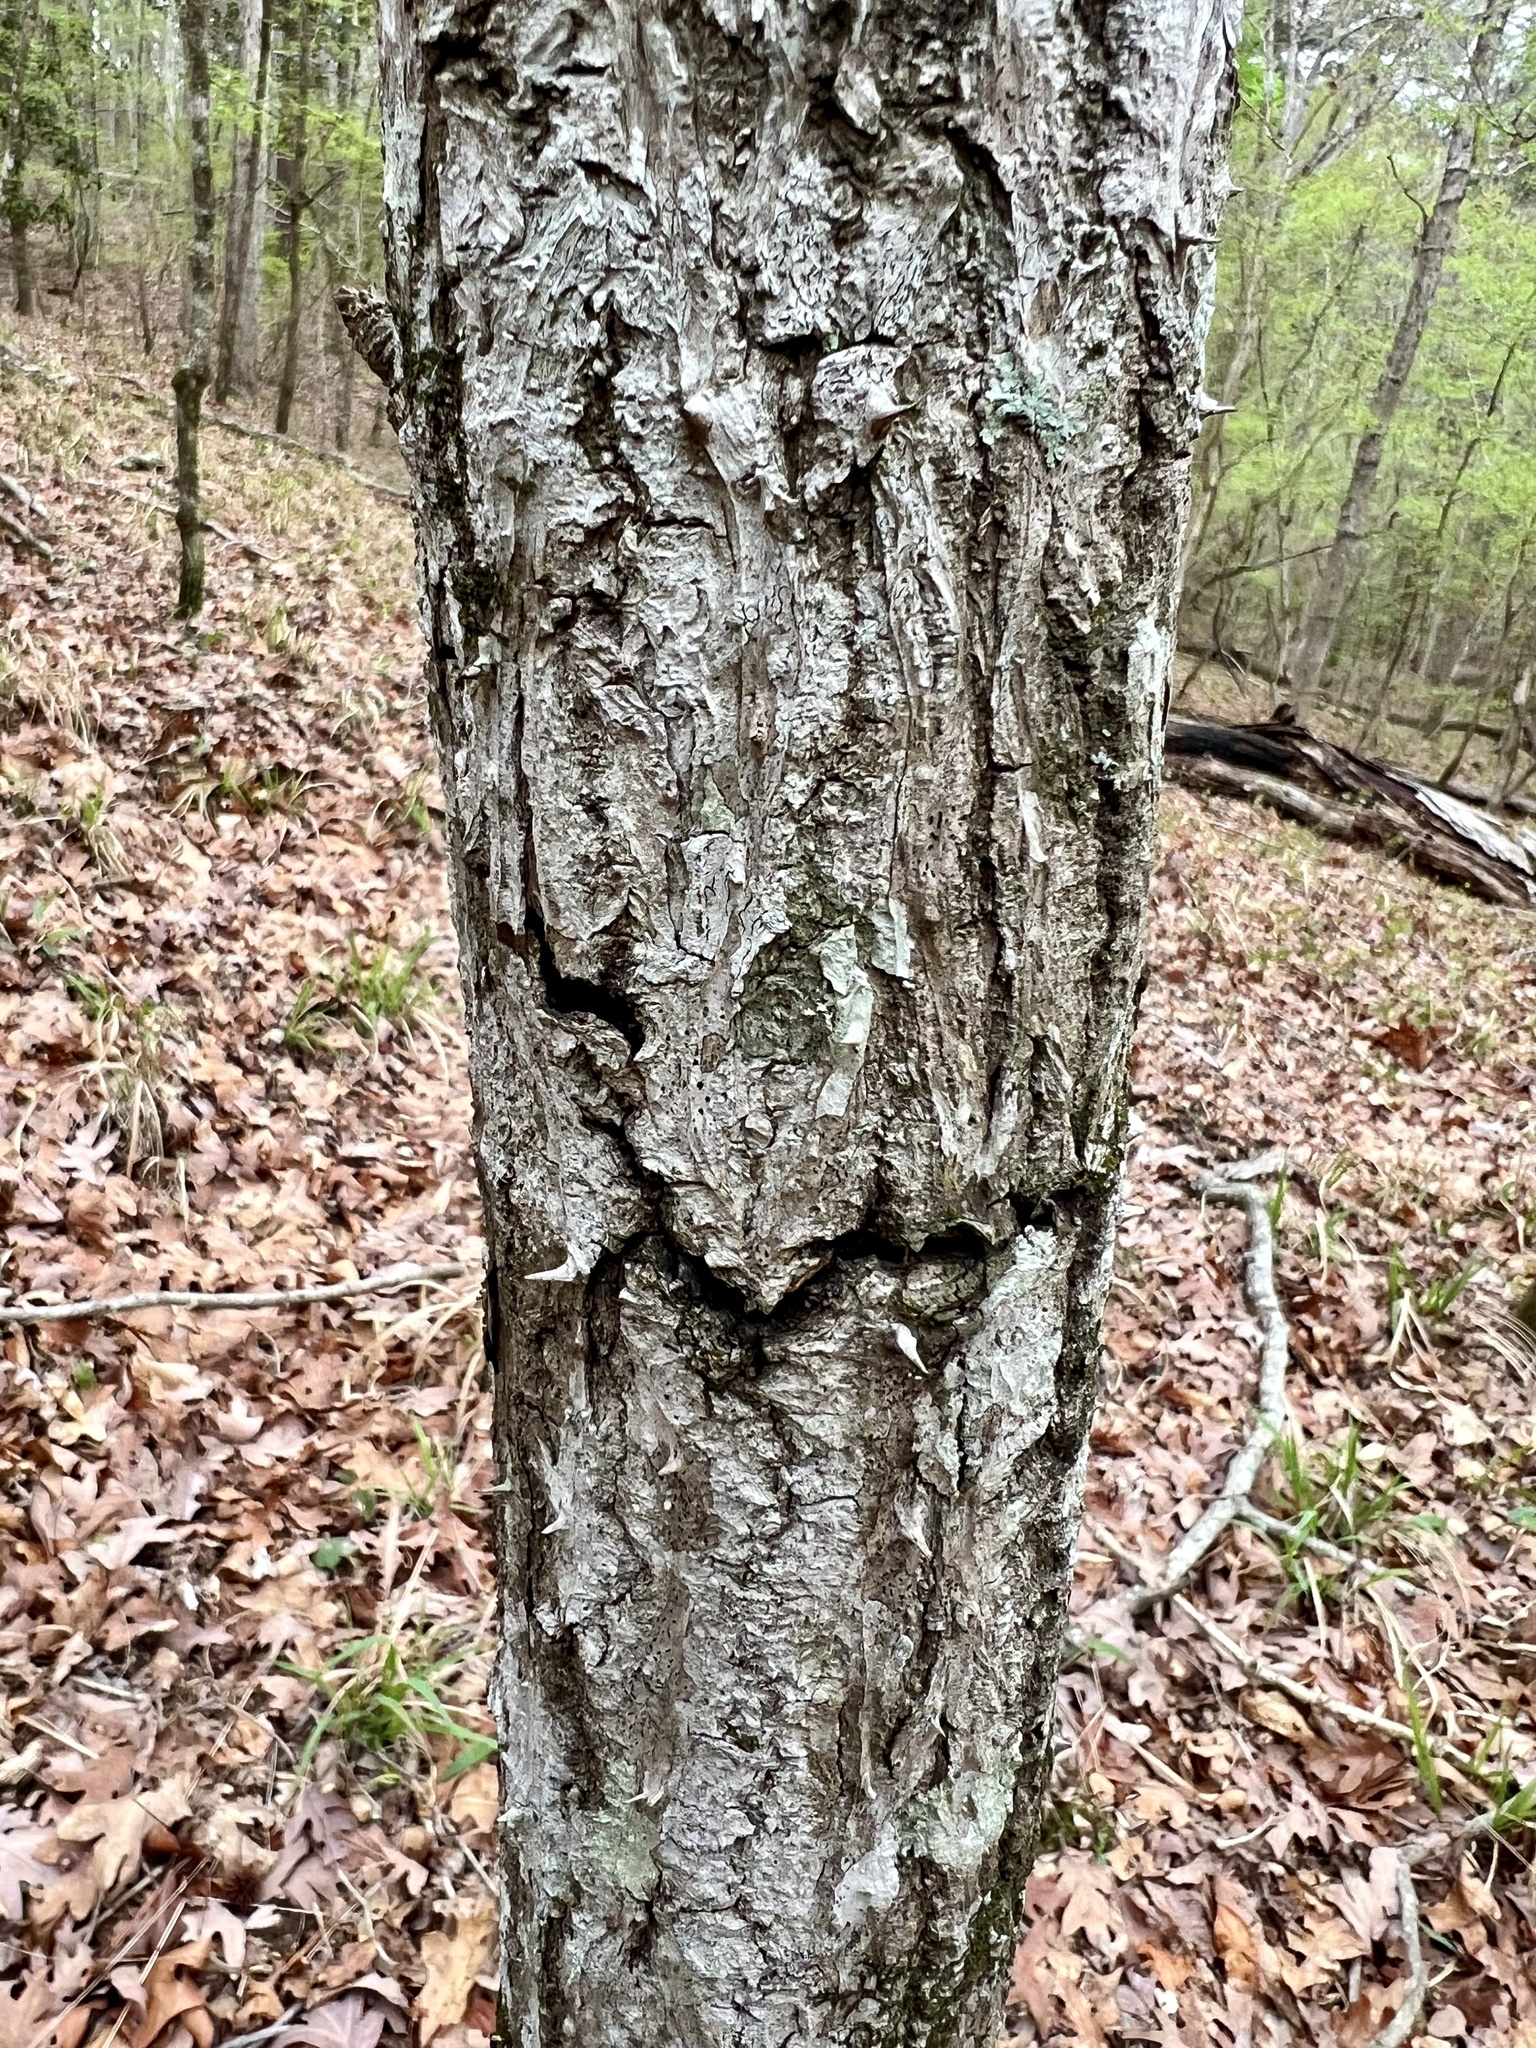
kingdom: Plantae
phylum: Tracheophyta
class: Magnoliopsida
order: Apiales
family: Araliaceae
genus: Aralia
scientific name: Aralia spinosa
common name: Hercules'-club
